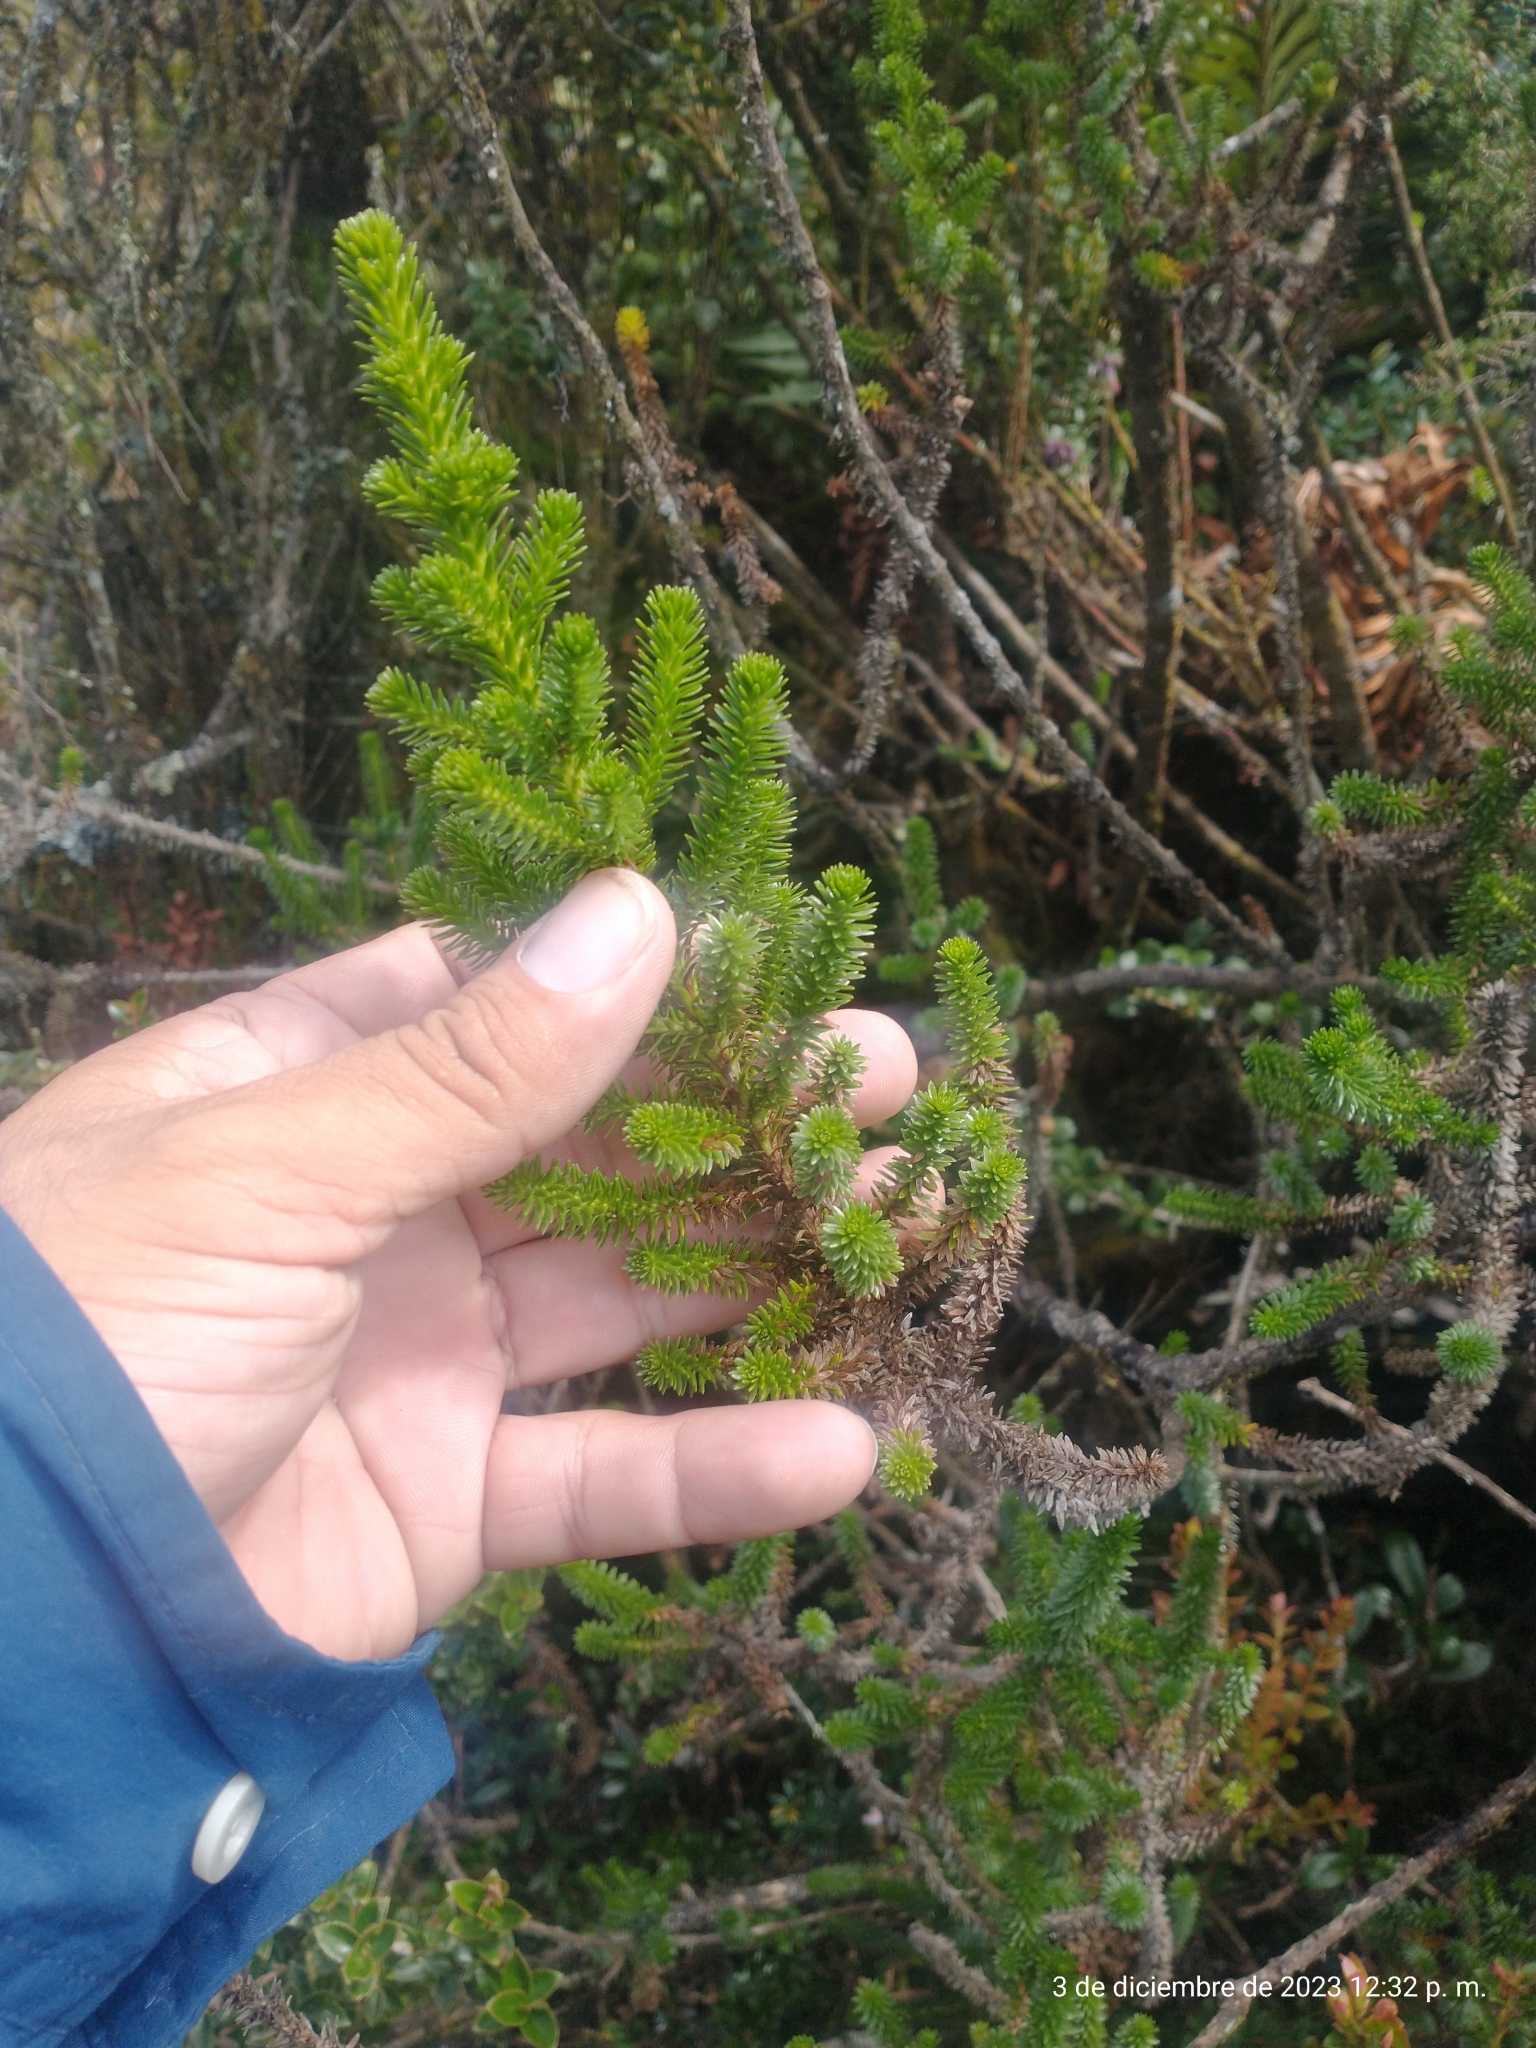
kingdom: Plantae
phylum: Tracheophyta
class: Magnoliopsida
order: Lamiales
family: Plantaginaceae
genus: Aragoa
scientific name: Aragoa abietina
